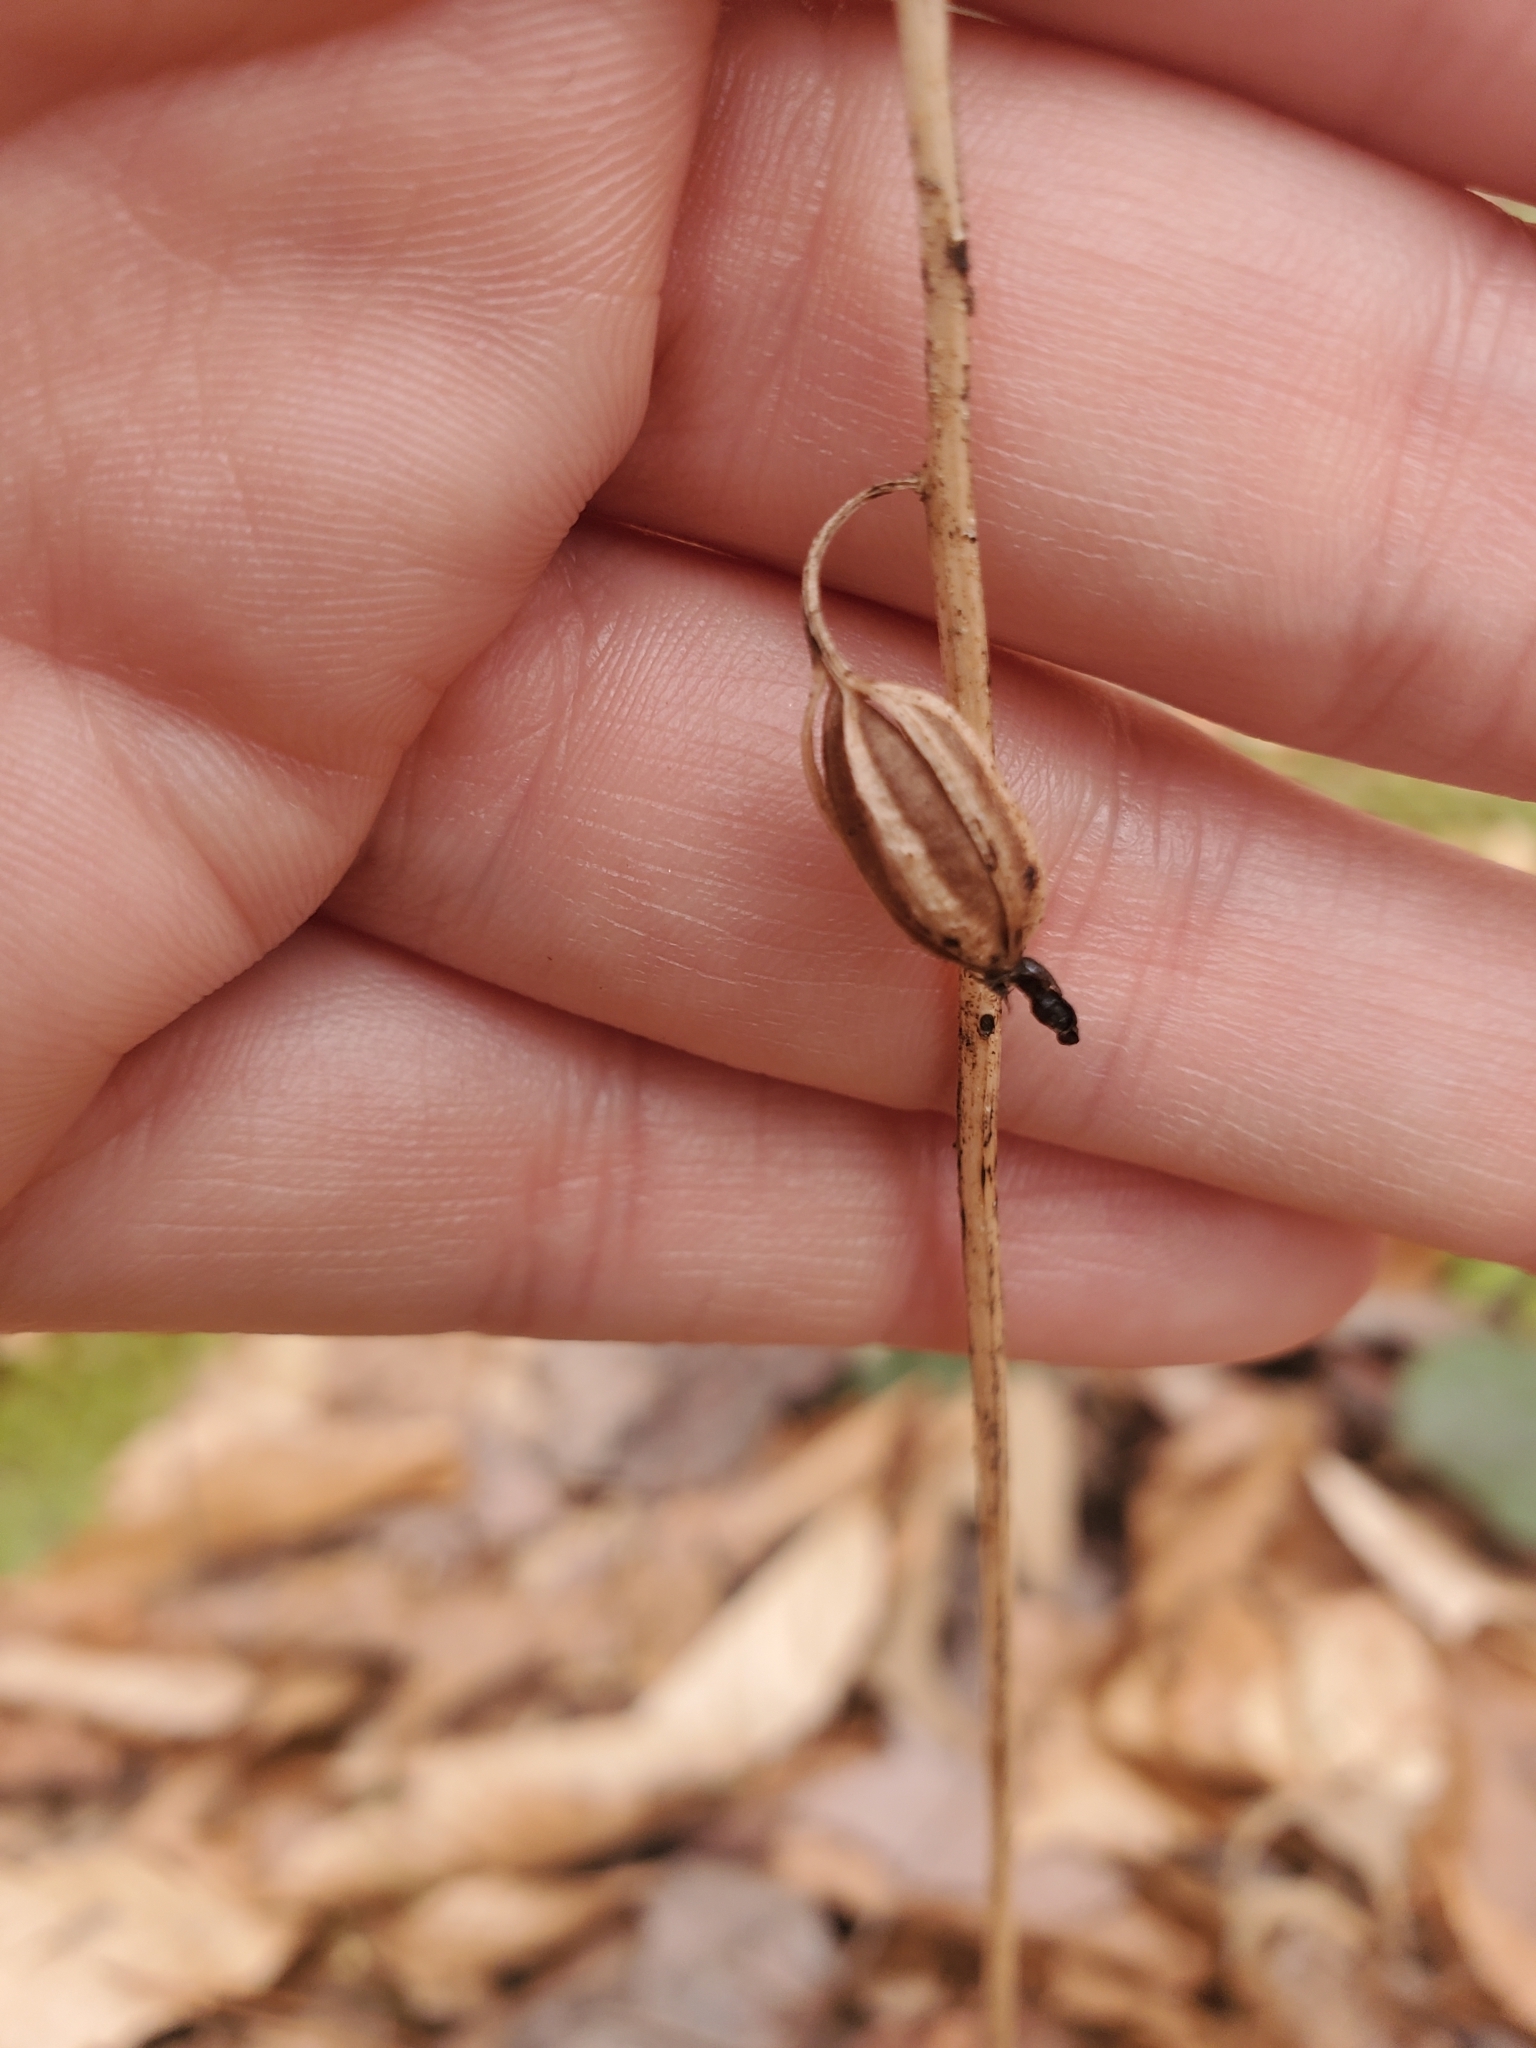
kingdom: Plantae
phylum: Tracheophyta
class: Liliopsida
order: Asparagales
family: Orchidaceae
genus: Tipularia
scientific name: Tipularia discolor
